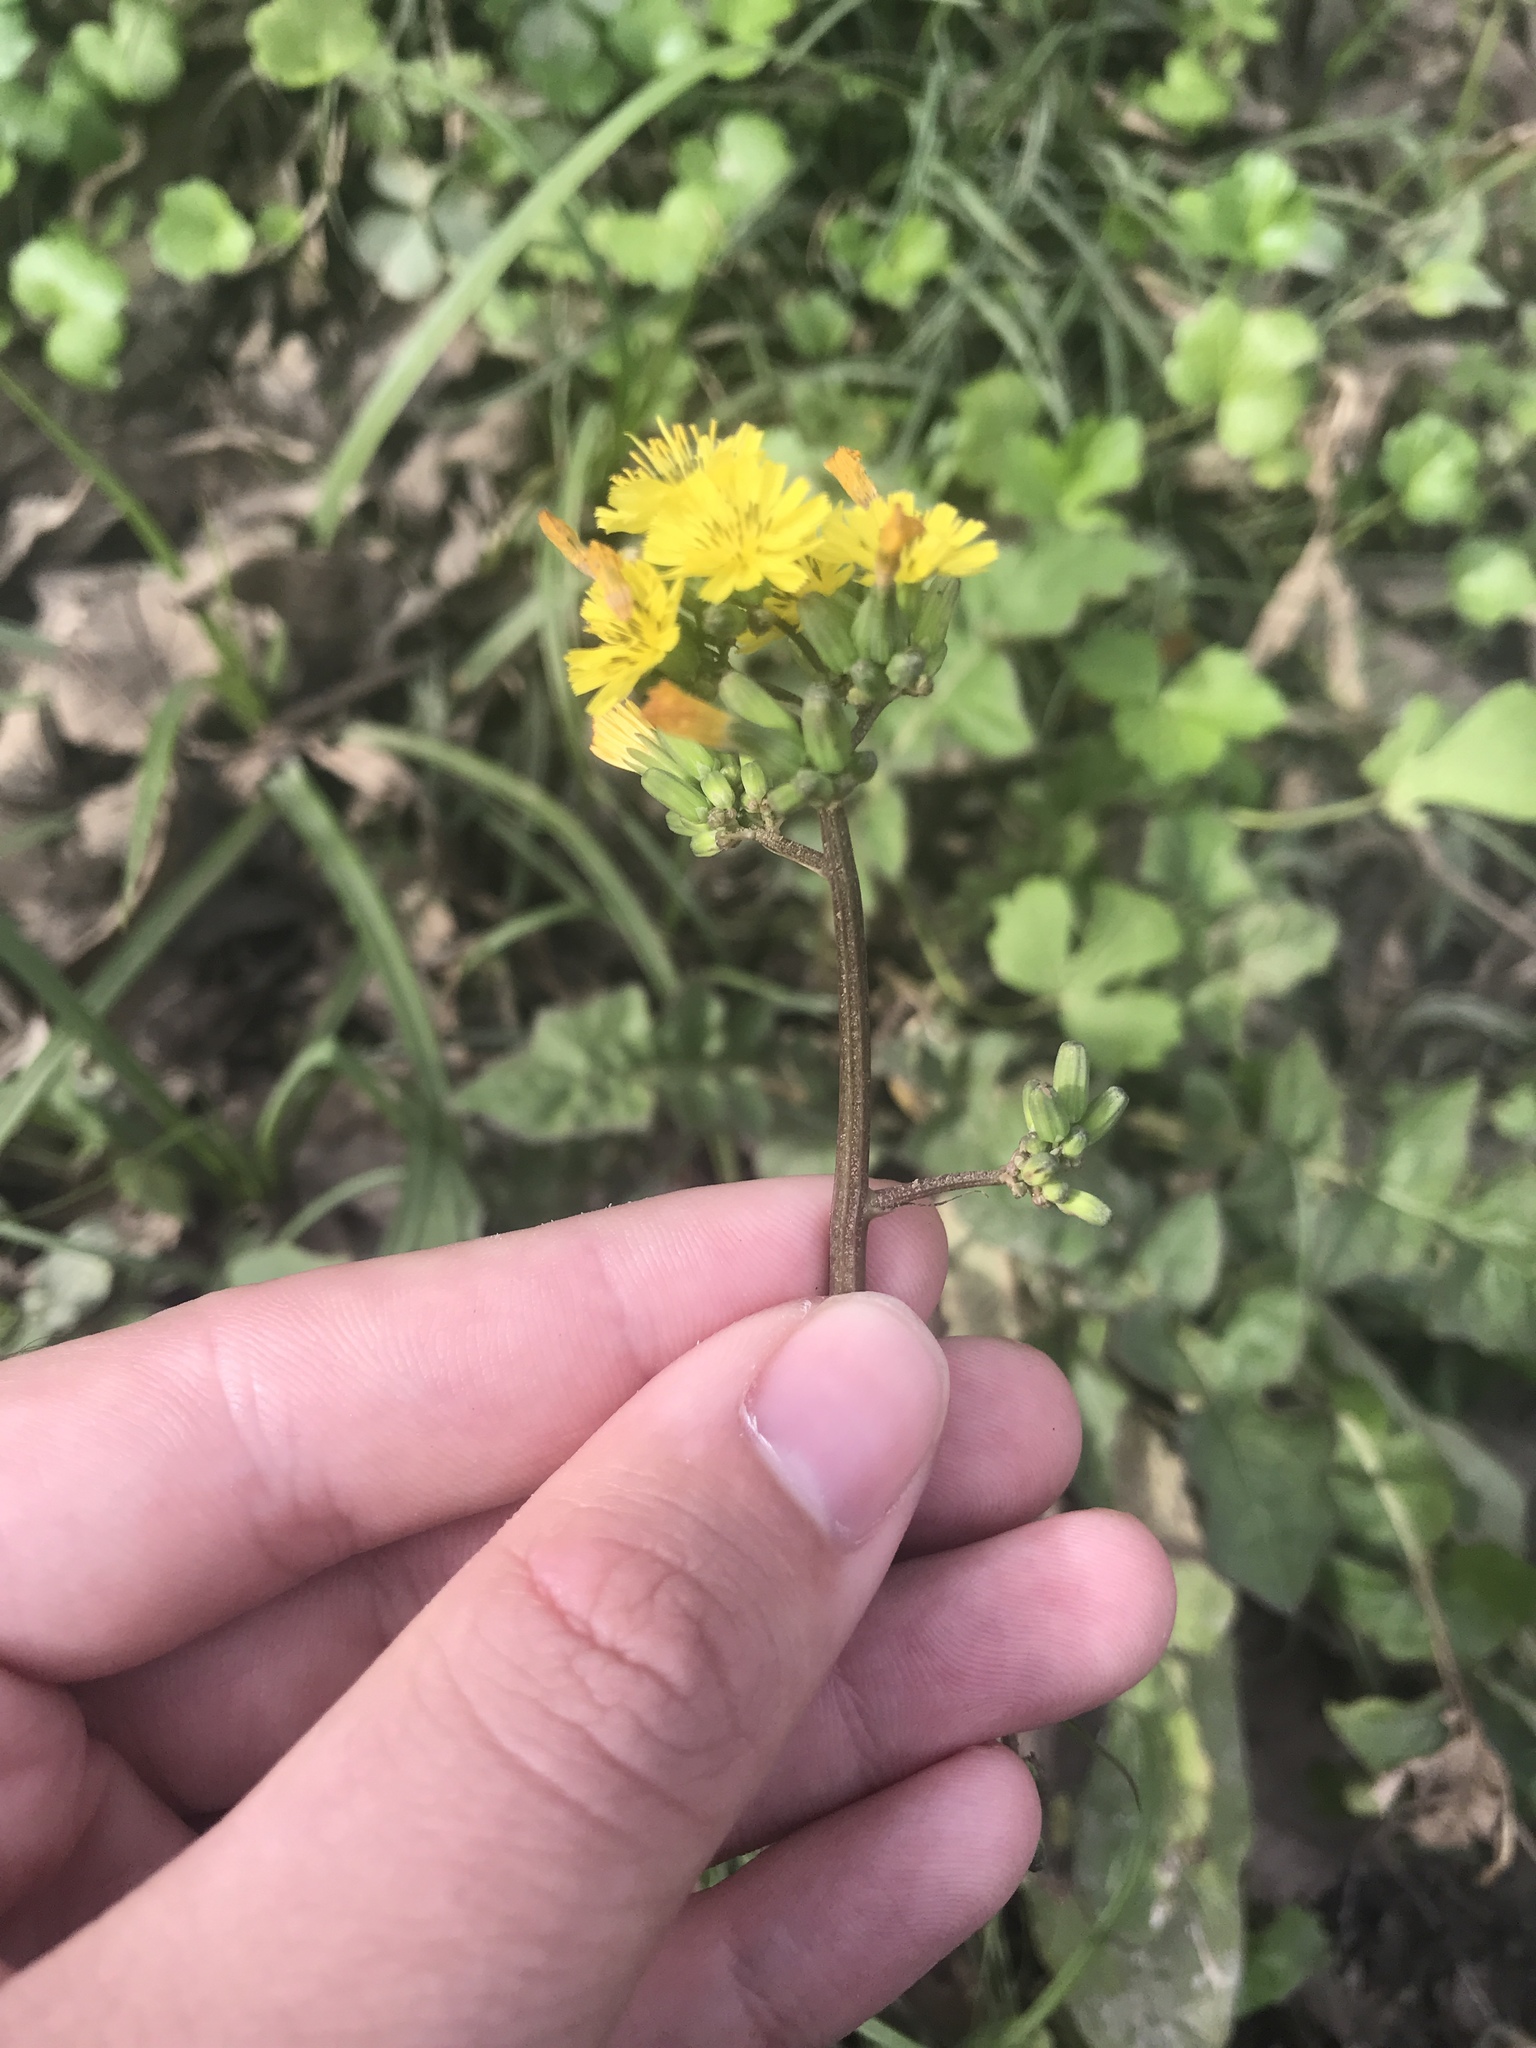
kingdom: Plantae
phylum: Tracheophyta
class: Magnoliopsida
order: Asterales
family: Asteraceae
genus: Youngia
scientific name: Youngia japonica
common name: Oriental false hawksbeard
